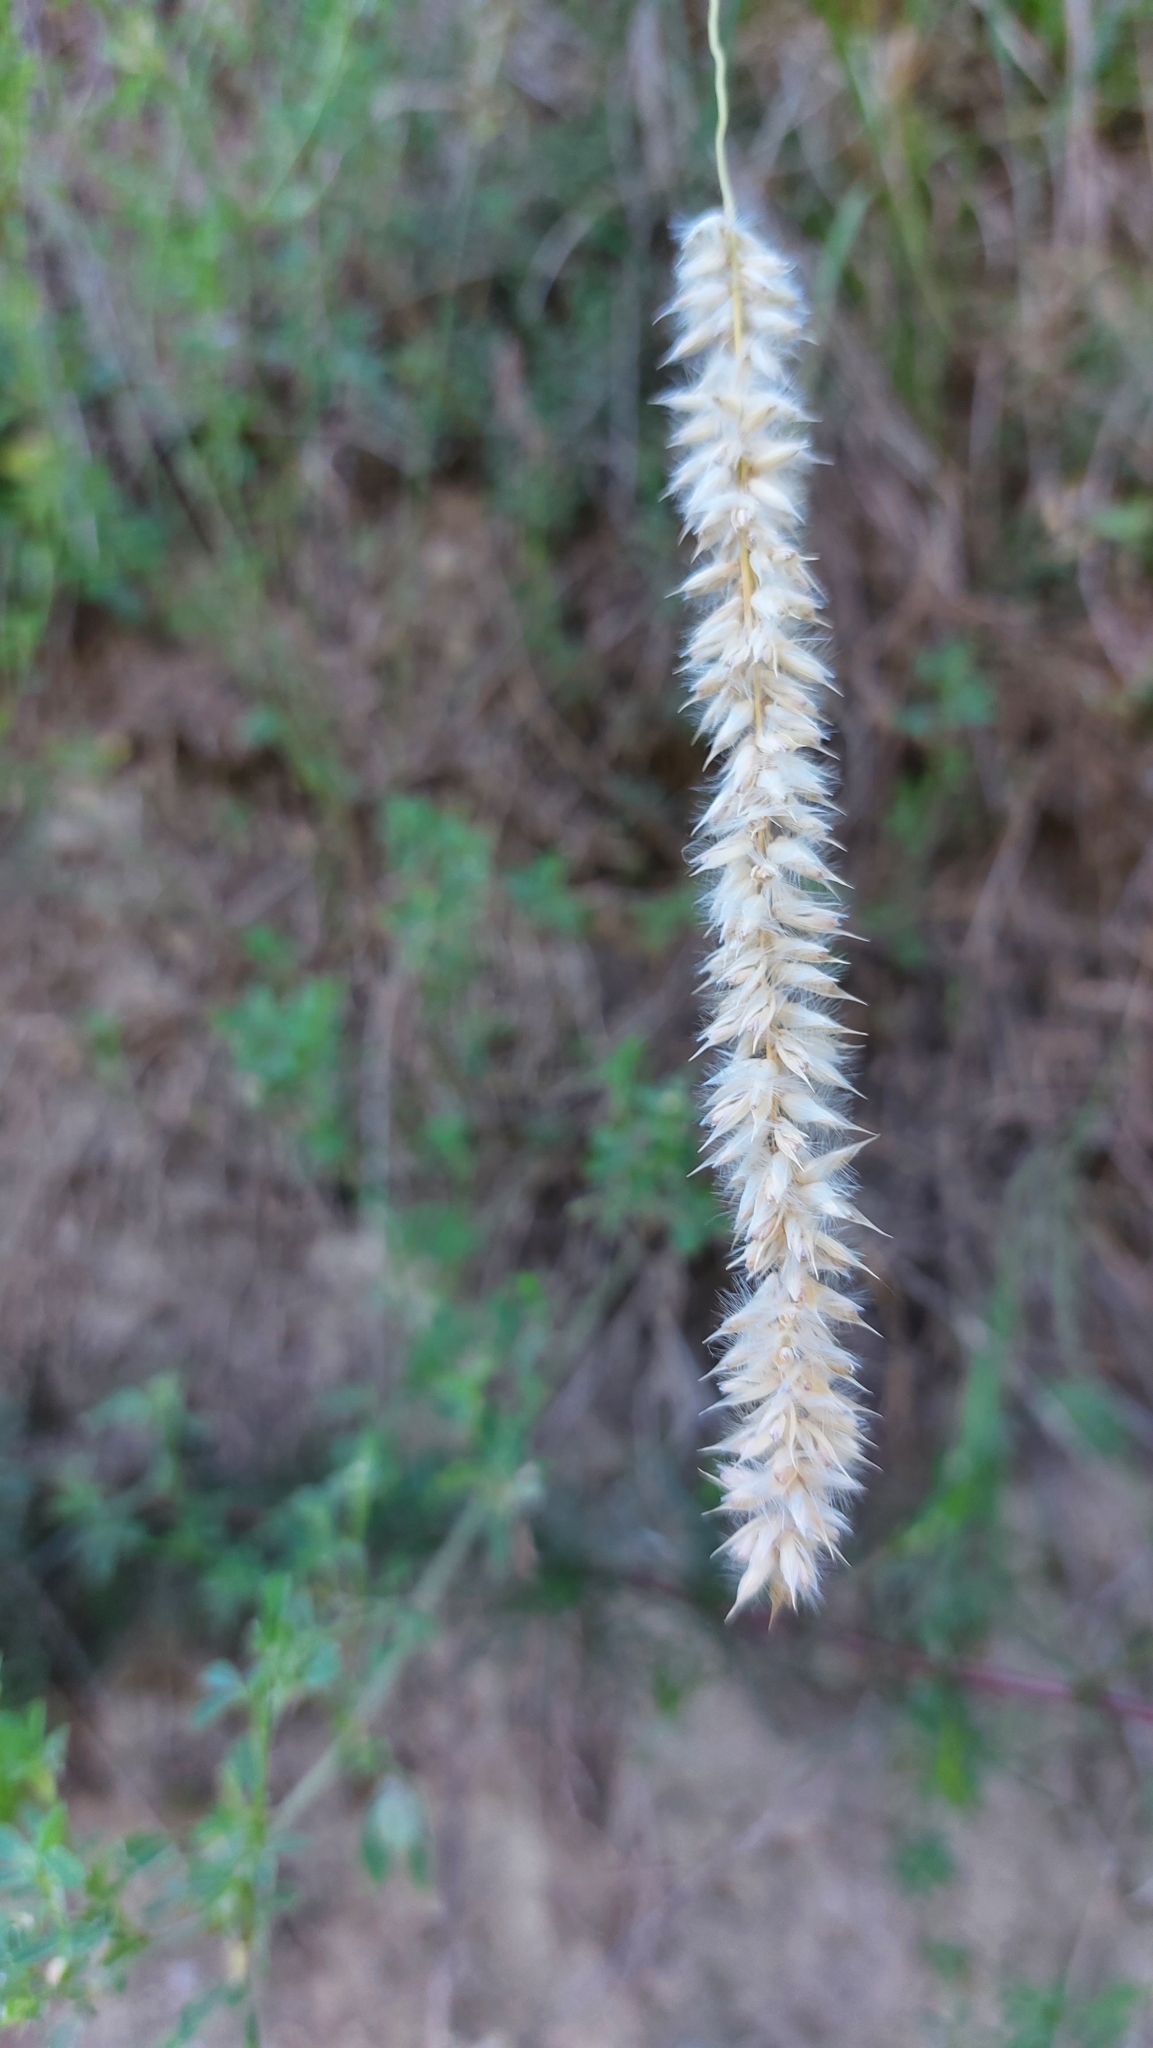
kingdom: Plantae
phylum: Tracheophyta
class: Liliopsida
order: Poales
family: Poaceae
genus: Melica
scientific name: Melica ciliata
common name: Hairy melicgrass
